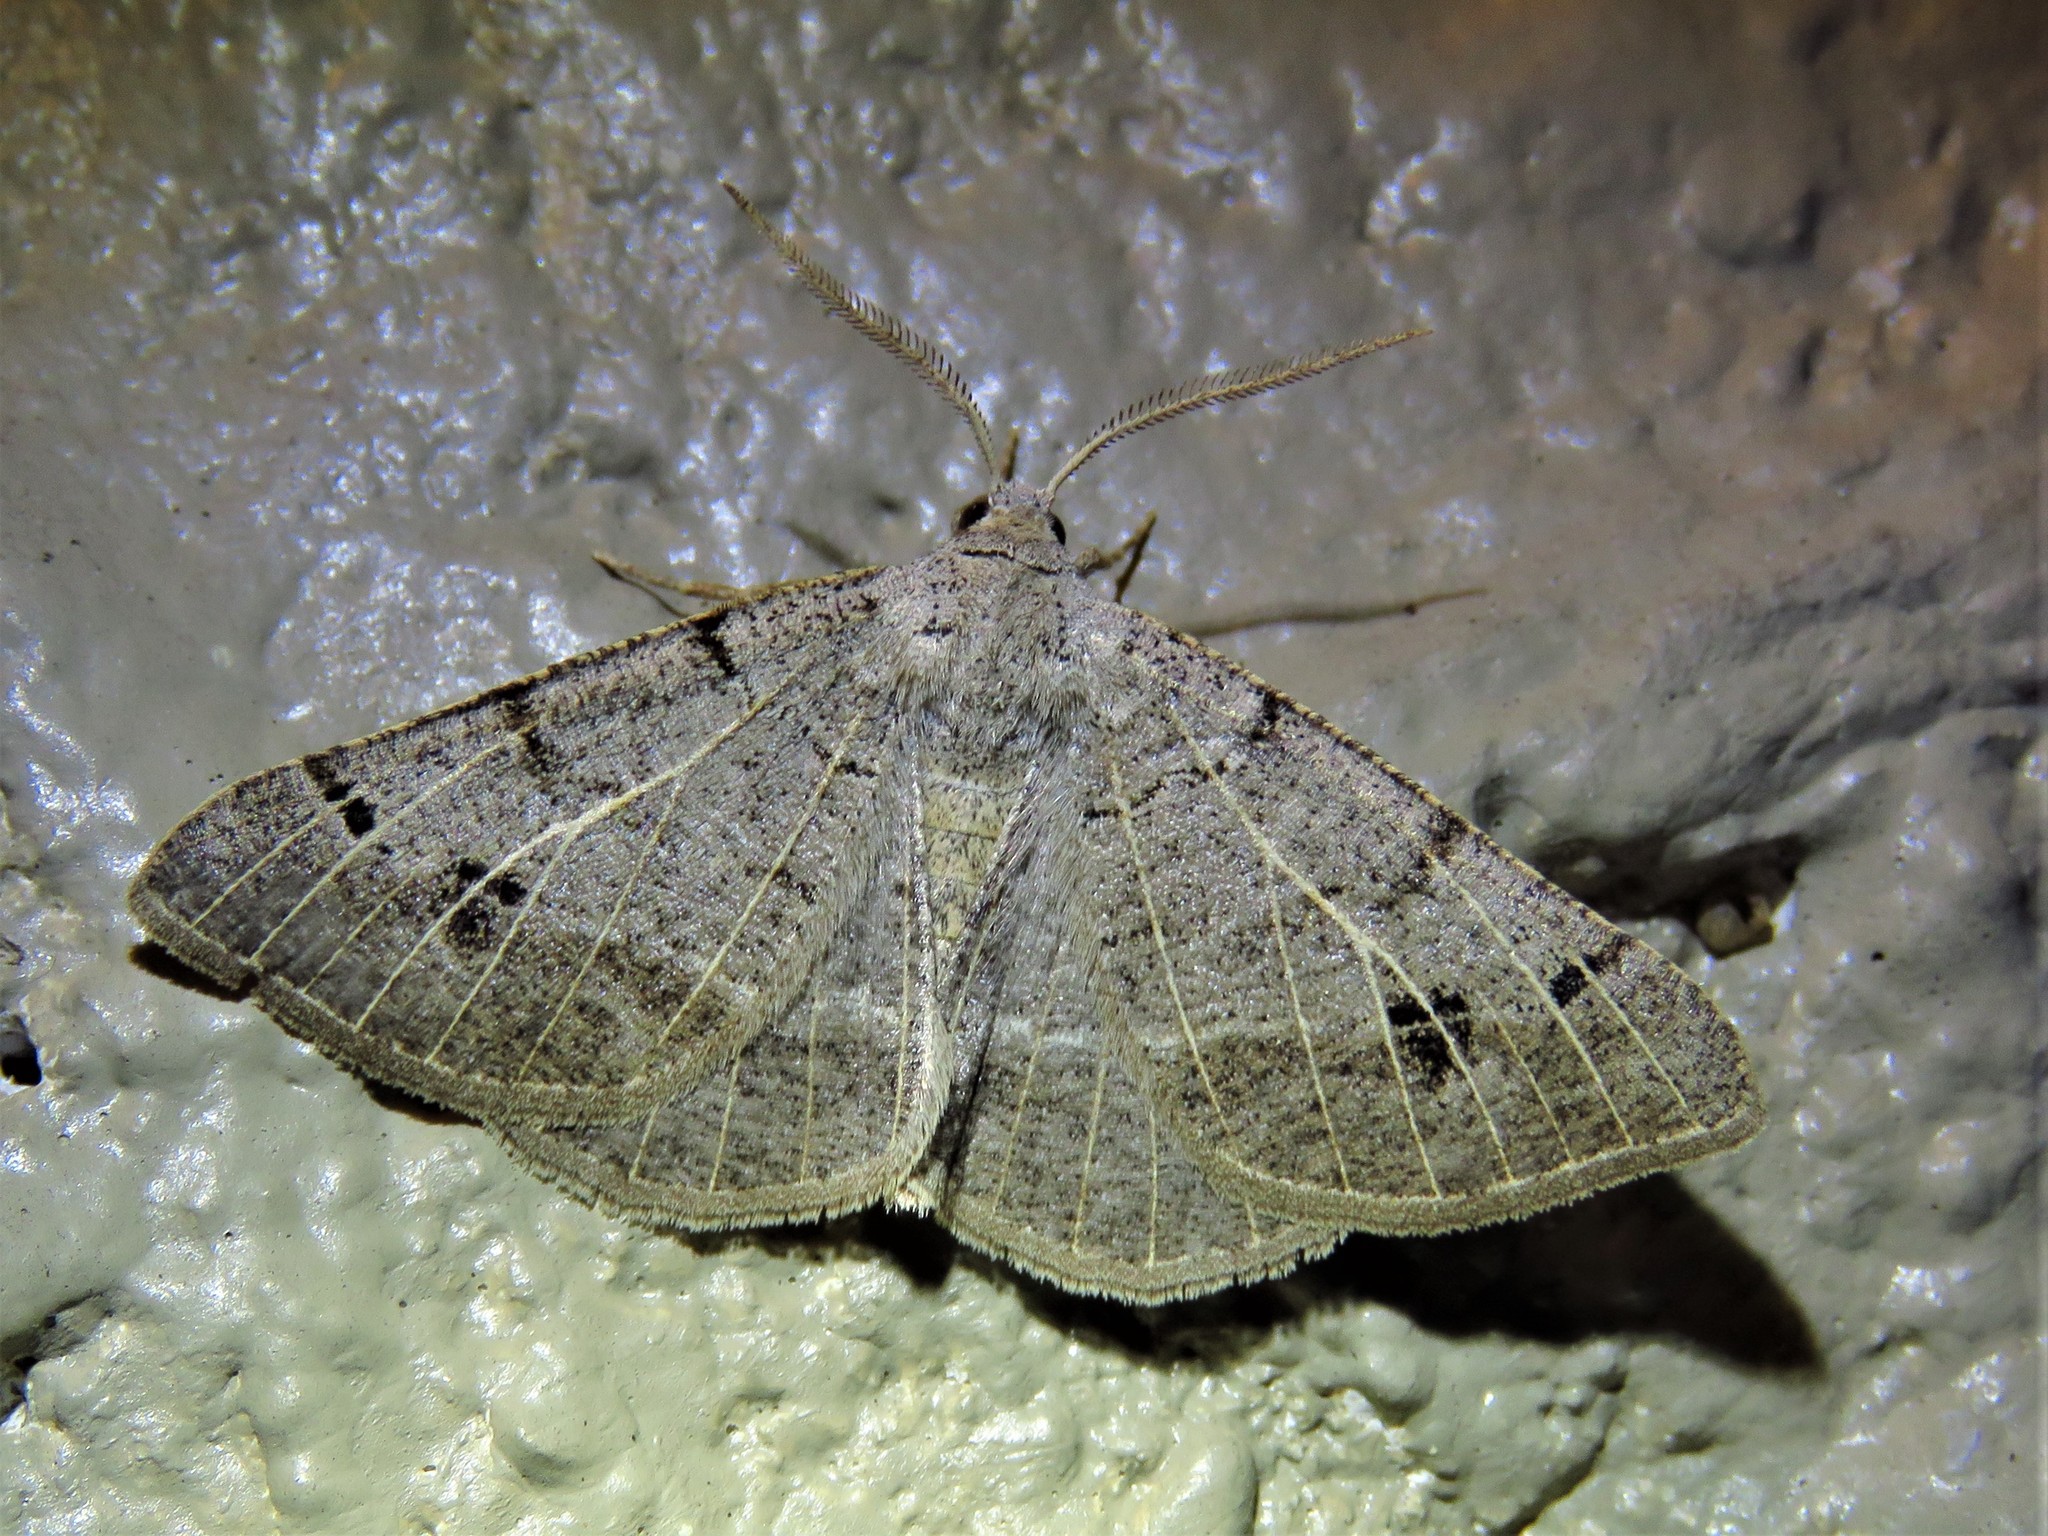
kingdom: Animalia
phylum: Arthropoda
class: Insecta
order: Lepidoptera
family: Geometridae
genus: Isturgia
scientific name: Isturgia dislocaria
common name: Pale-viened enconista
